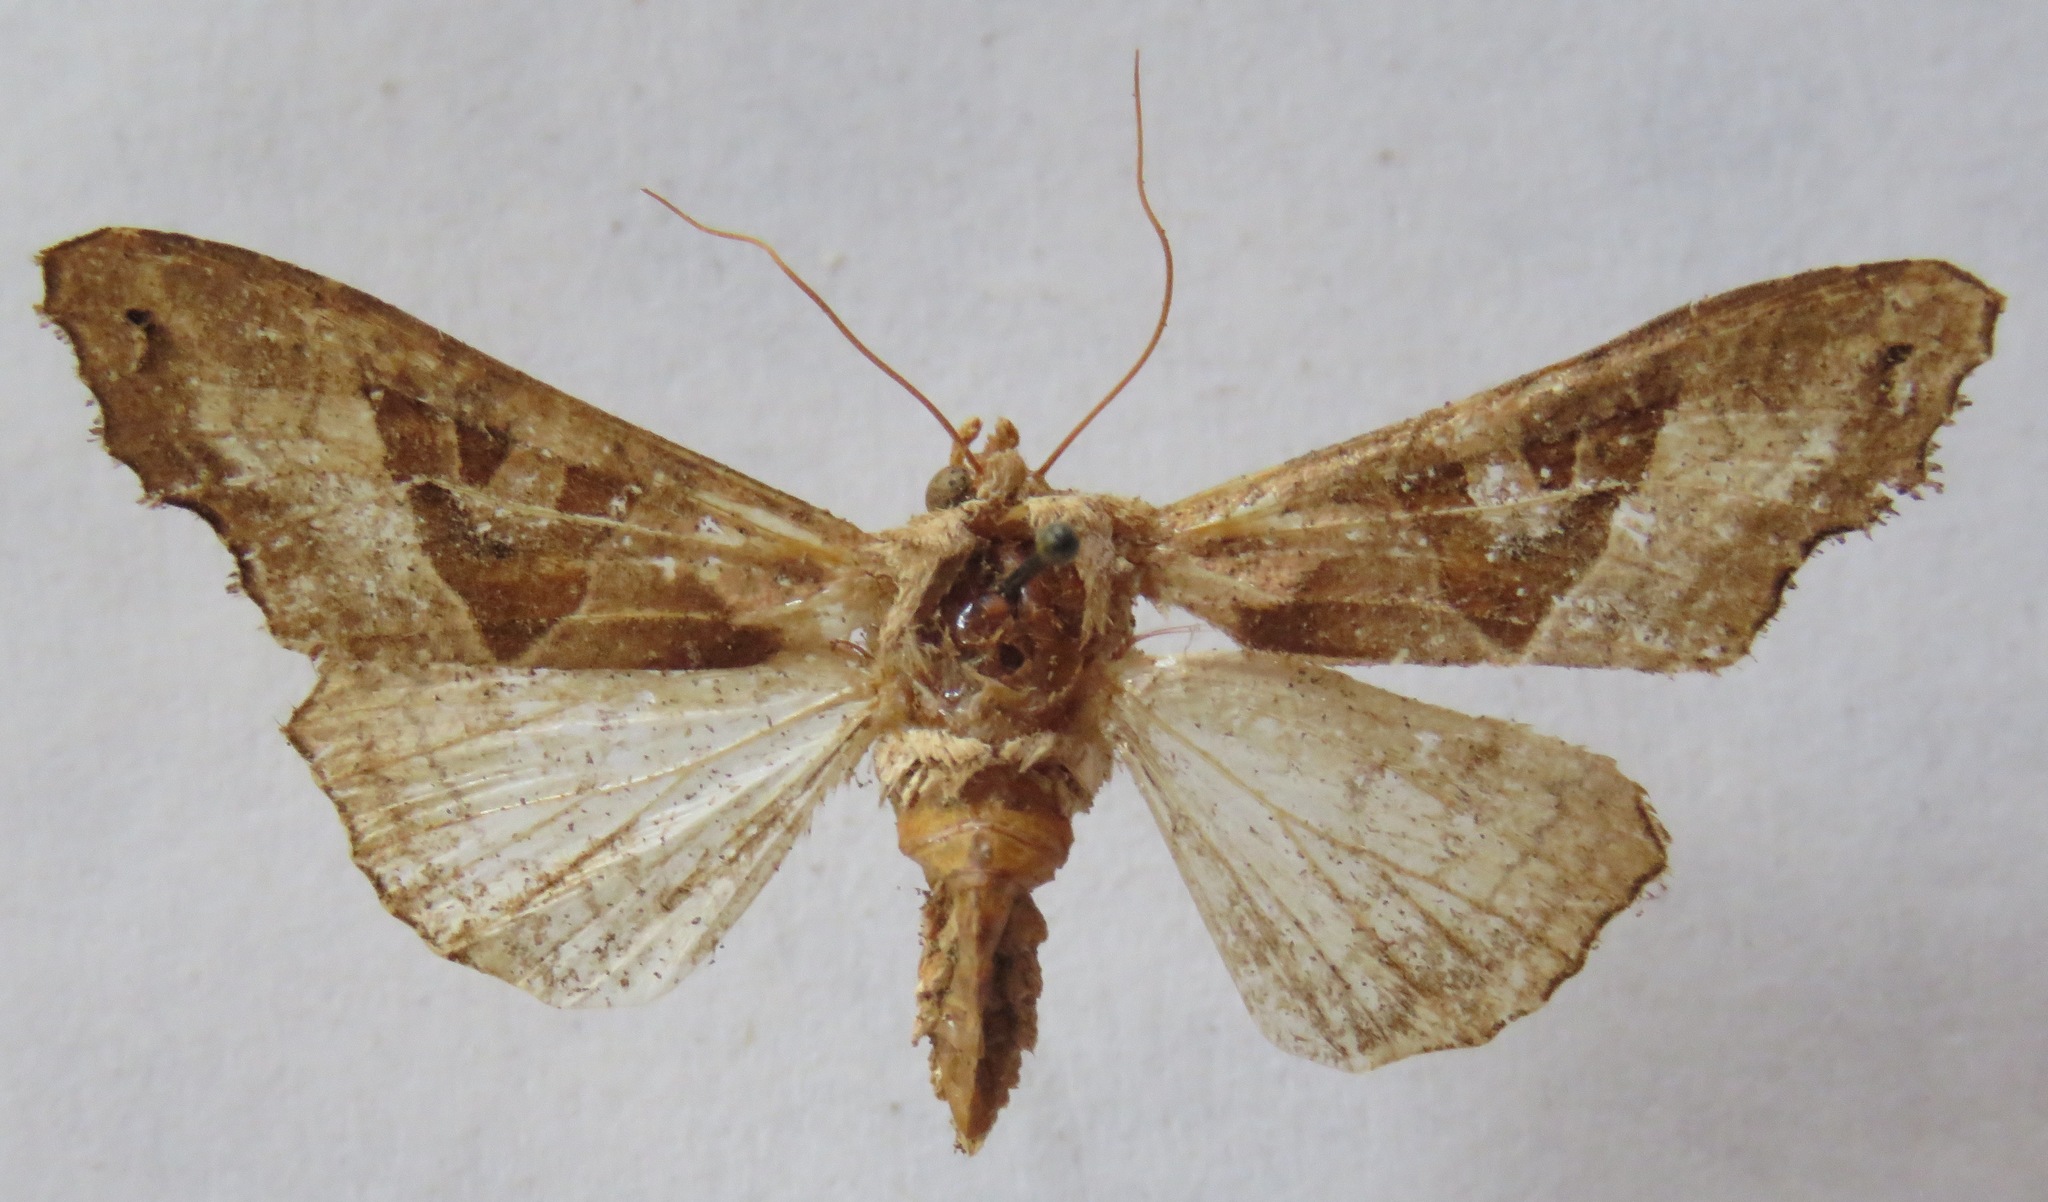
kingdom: Animalia
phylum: Arthropoda
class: Insecta
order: Lepidoptera
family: Noctuidae
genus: Phlogophora
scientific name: Phlogophora meticulosa
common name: Angle shades
